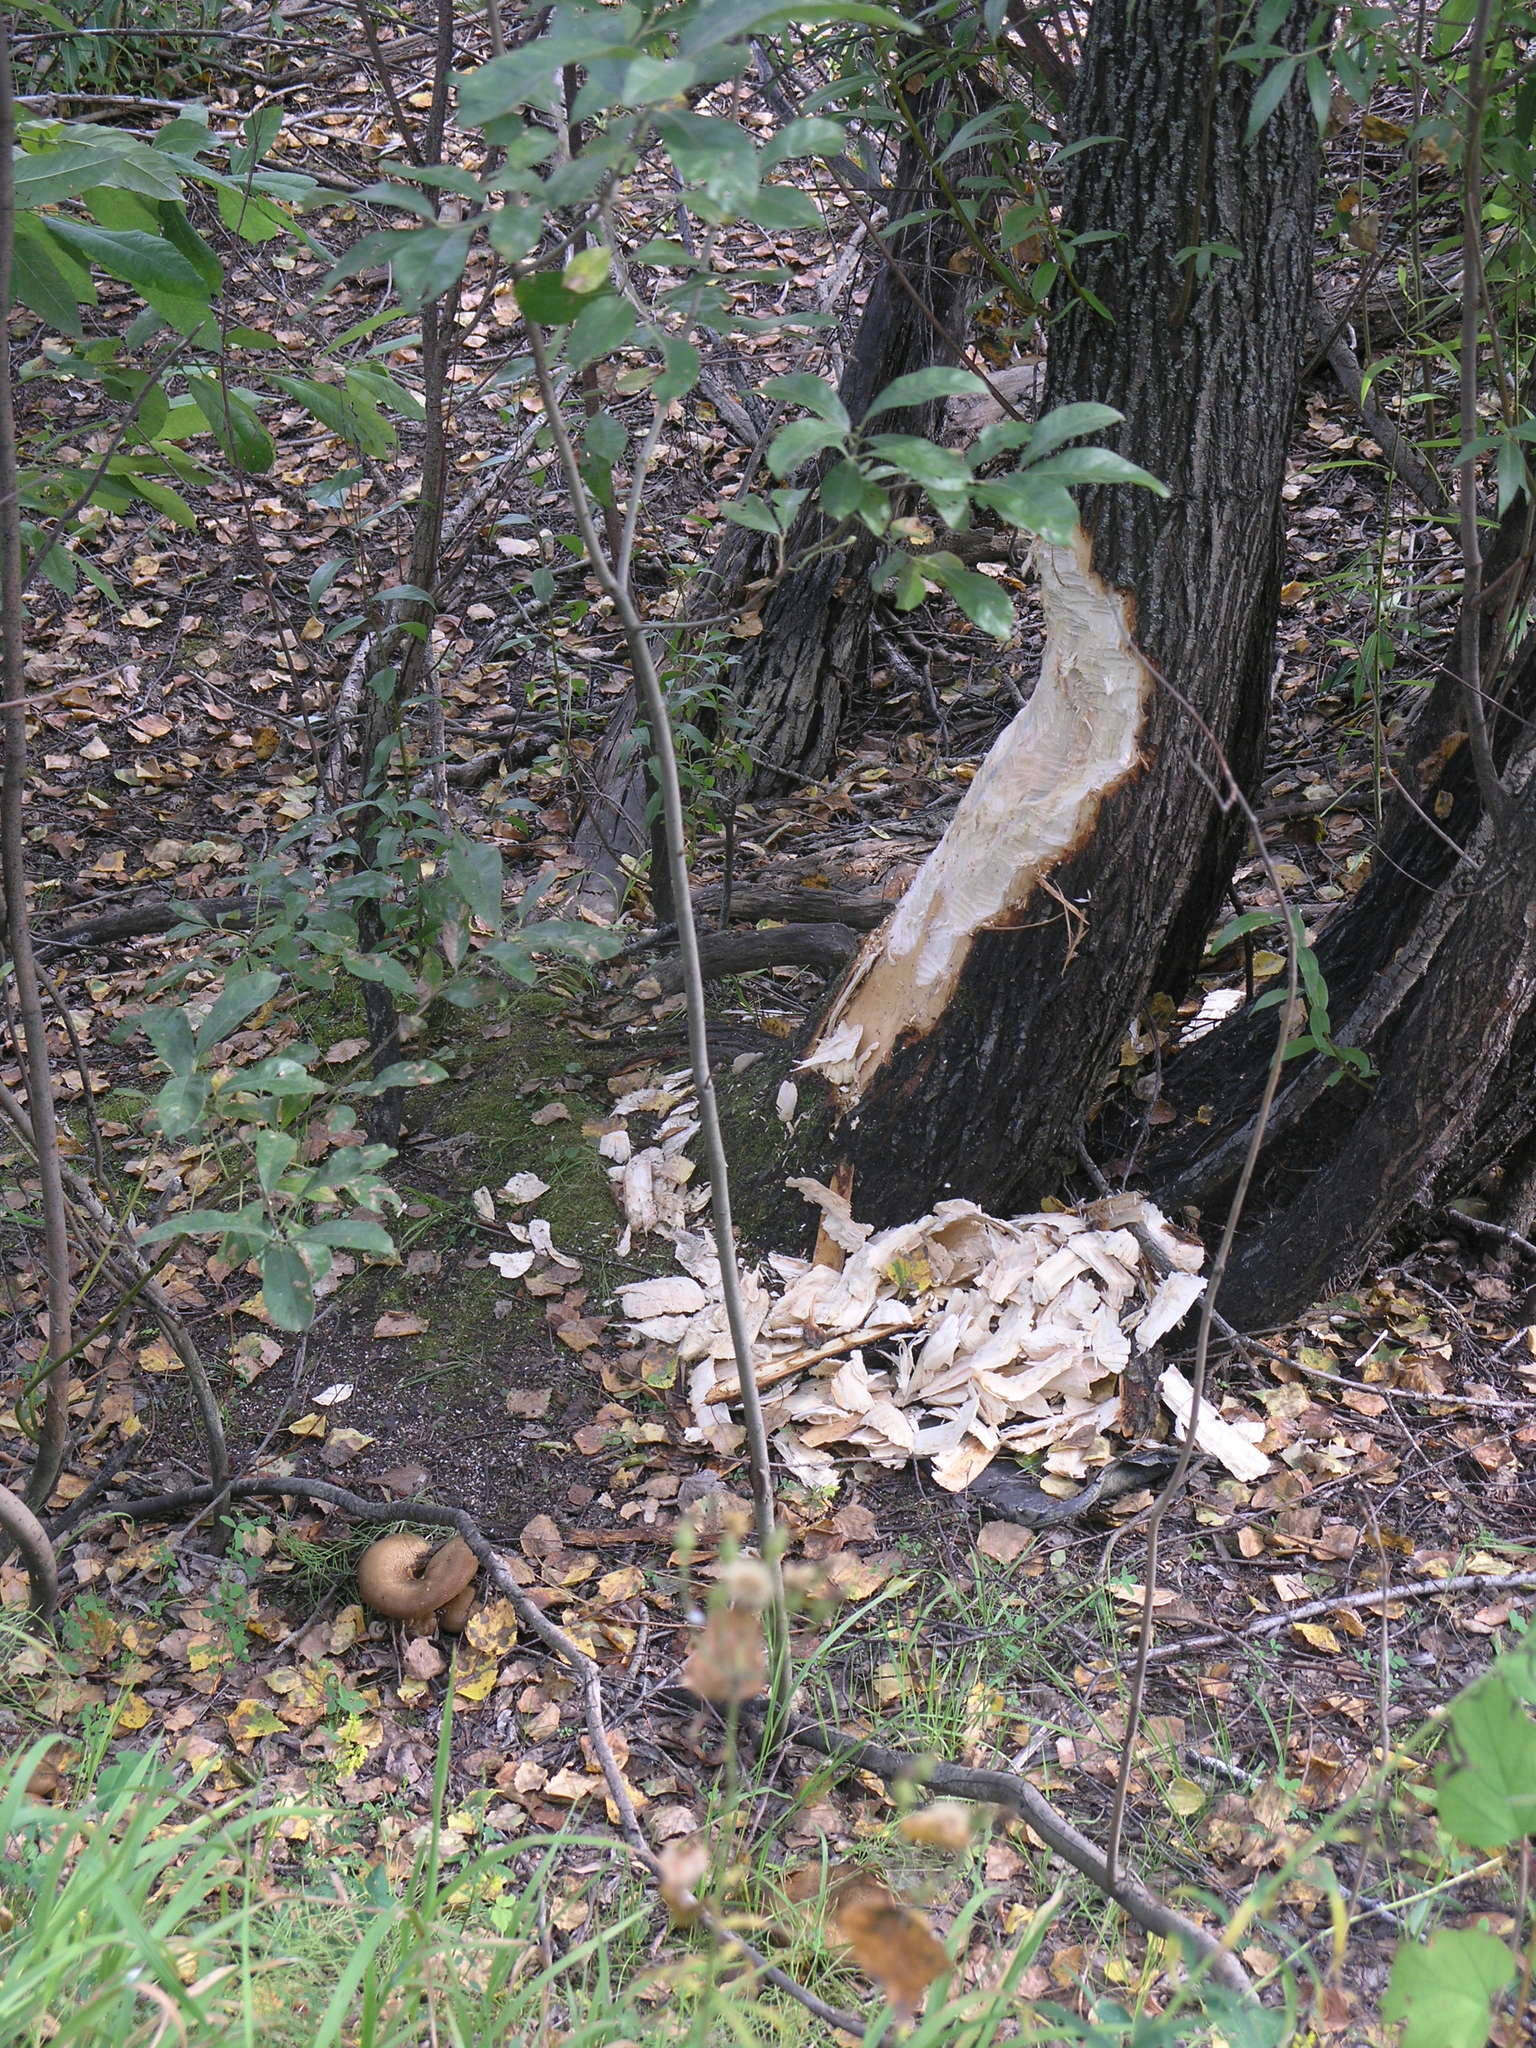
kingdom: Animalia
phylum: Chordata
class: Mammalia
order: Rodentia
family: Castoridae
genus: Castor
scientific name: Castor fiber
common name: Eurasian beaver
